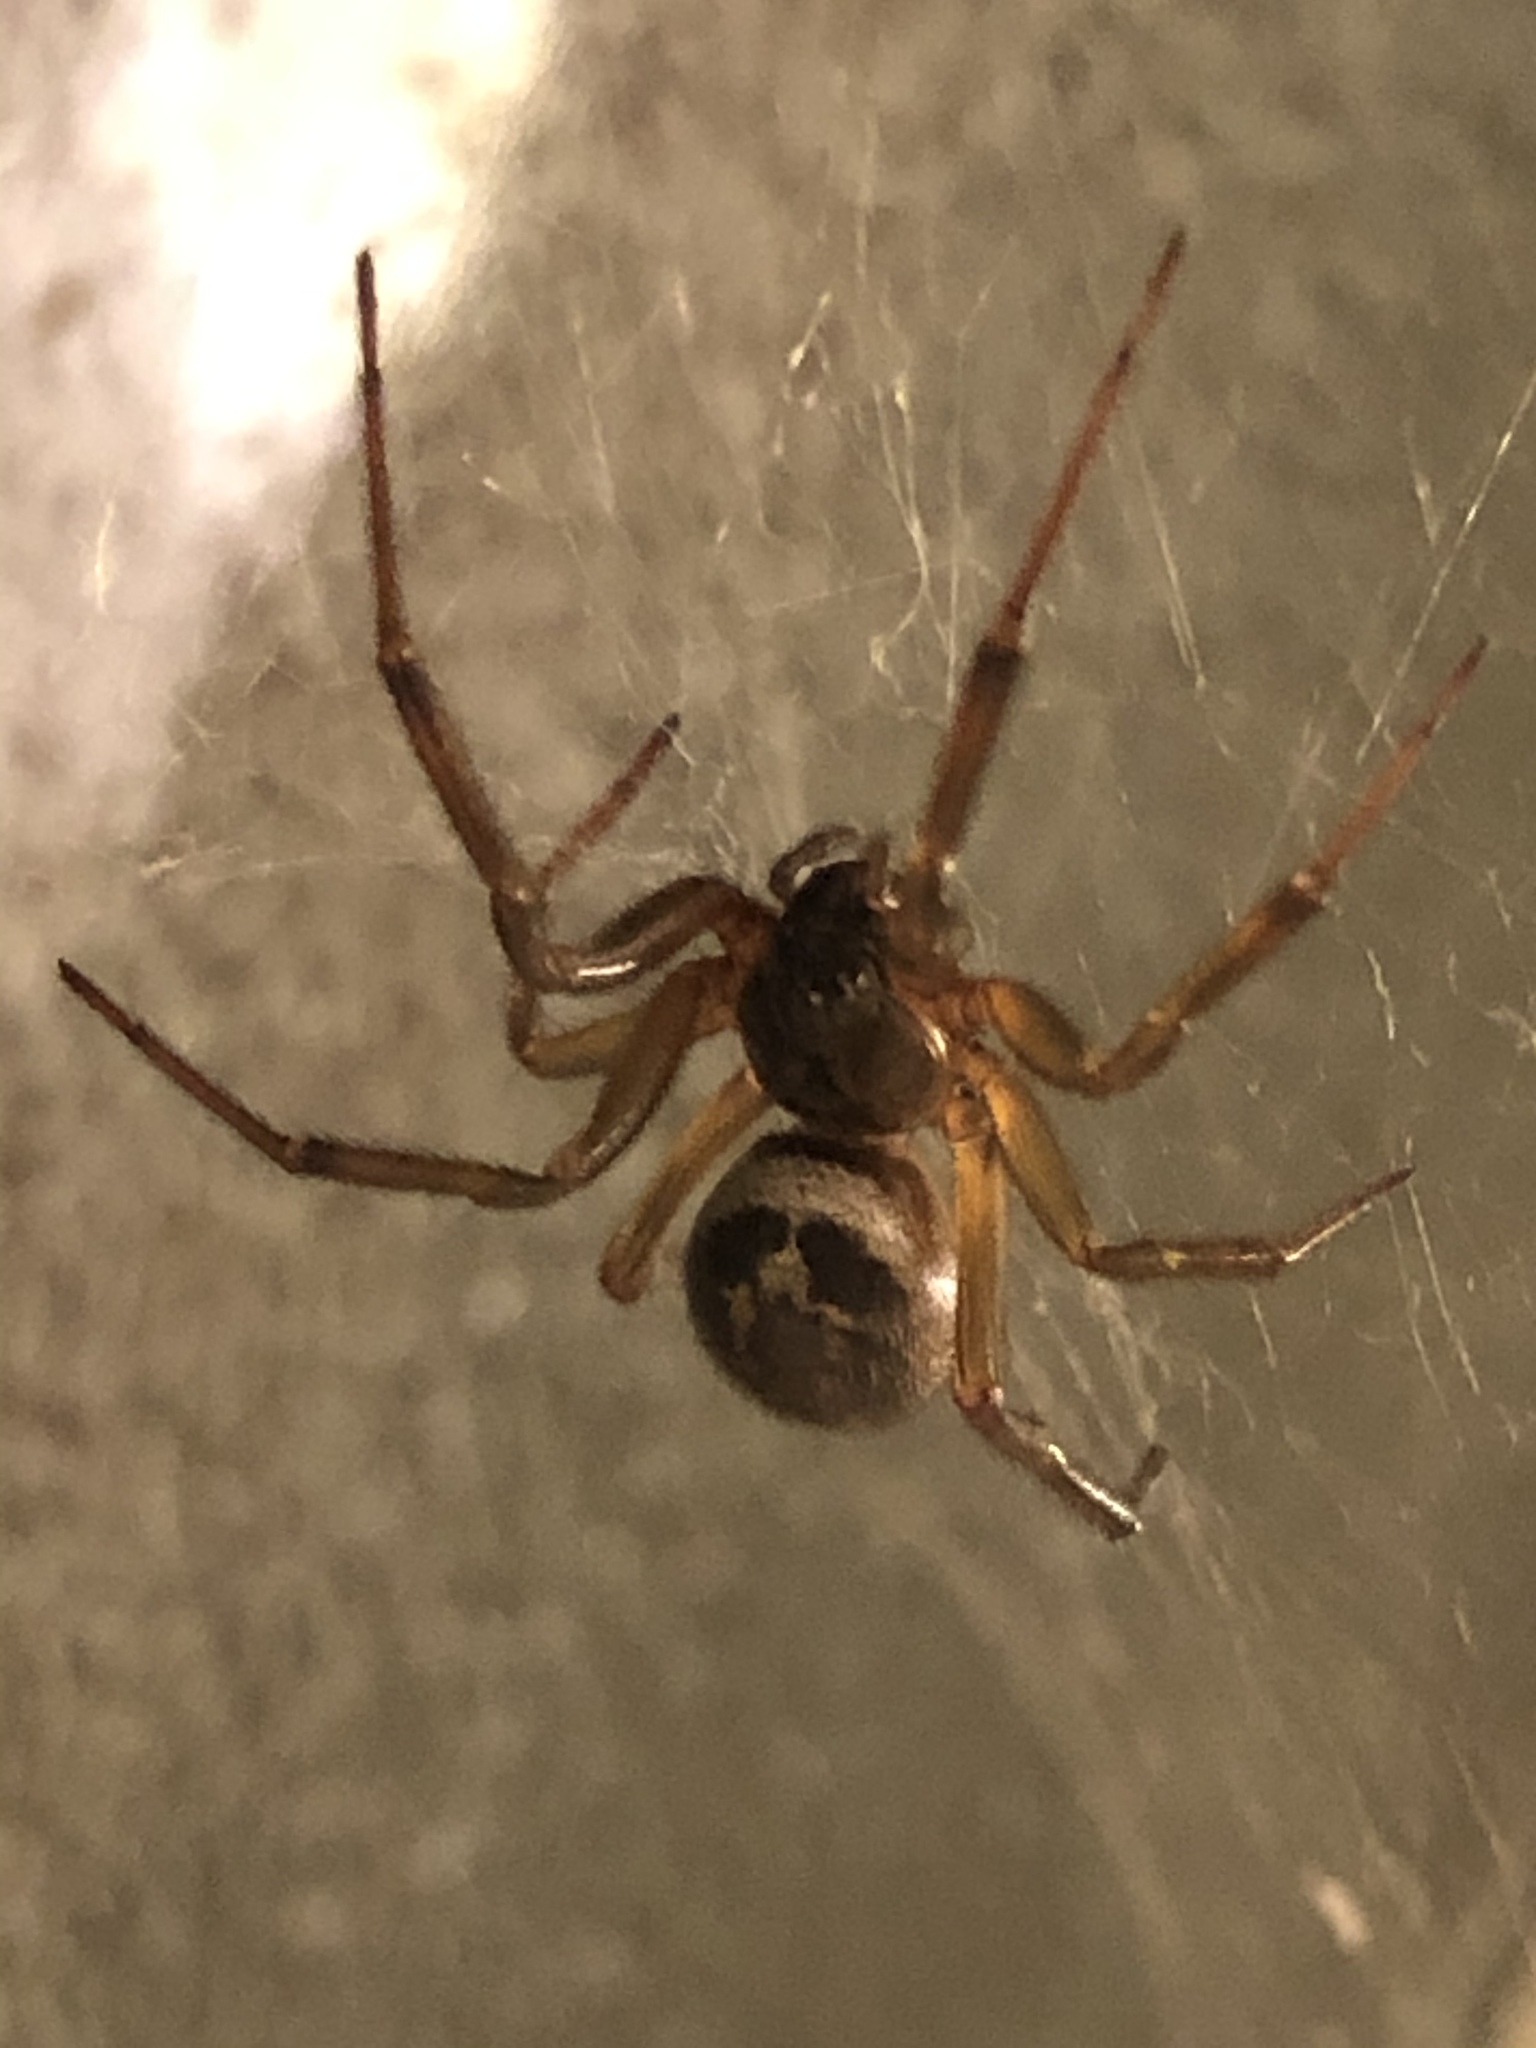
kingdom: Animalia
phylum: Arthropoda
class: Arachnida
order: Araneae
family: Theridiidae
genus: Steatoda
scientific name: Steatoda nobilis
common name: Cobweb weaver
